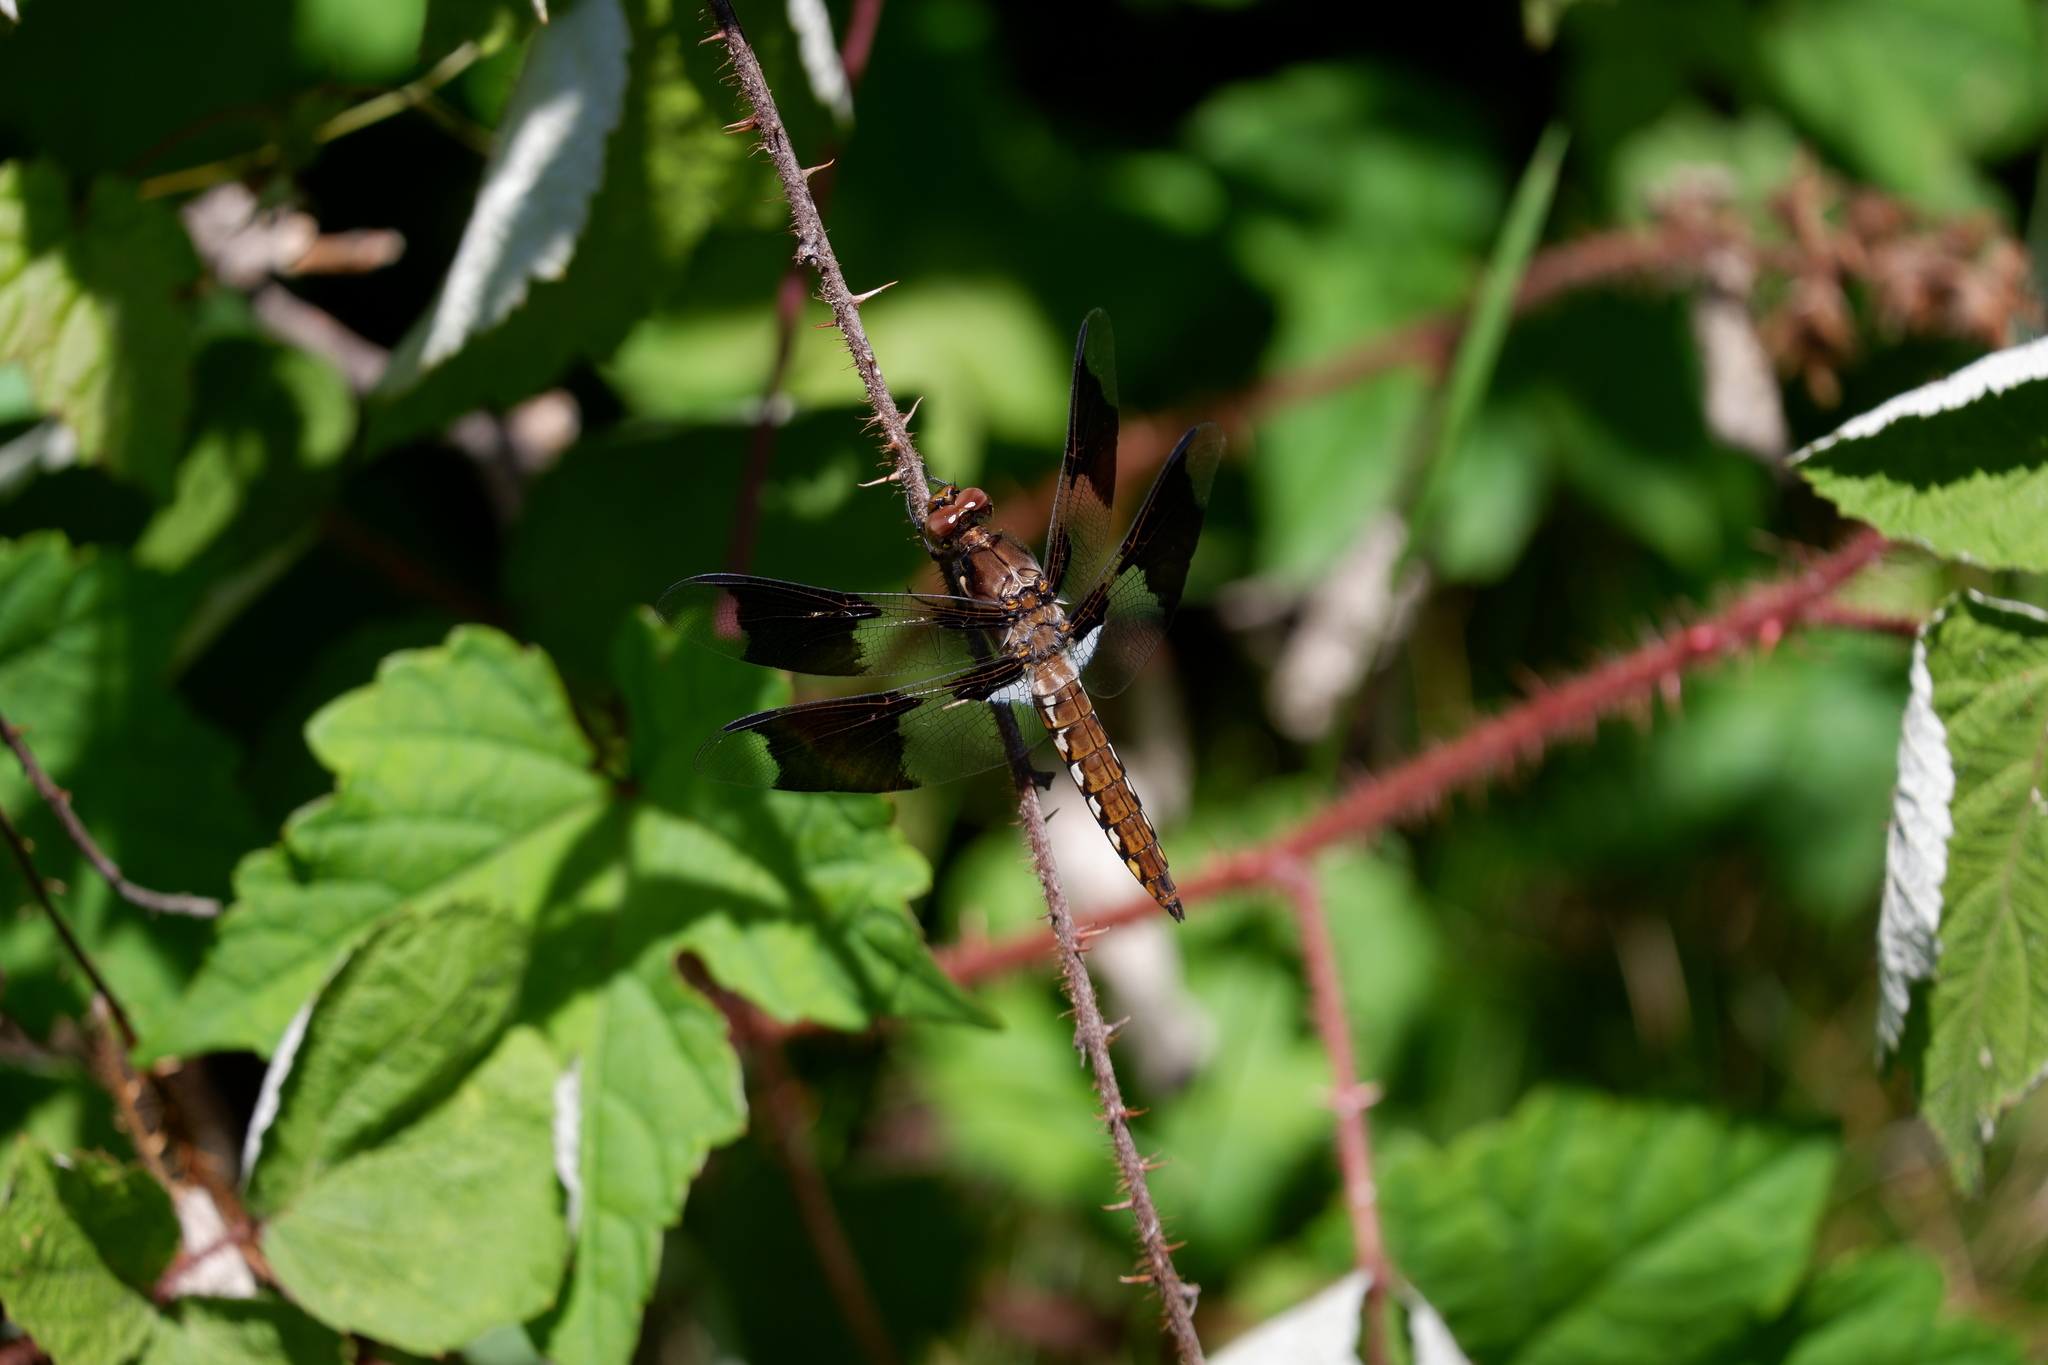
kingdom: Animalia
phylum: Arthropoda
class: Insecta
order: Odonata
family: Libellulidae
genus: Plathemis
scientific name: Plathemis lydia
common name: Common whitetail
